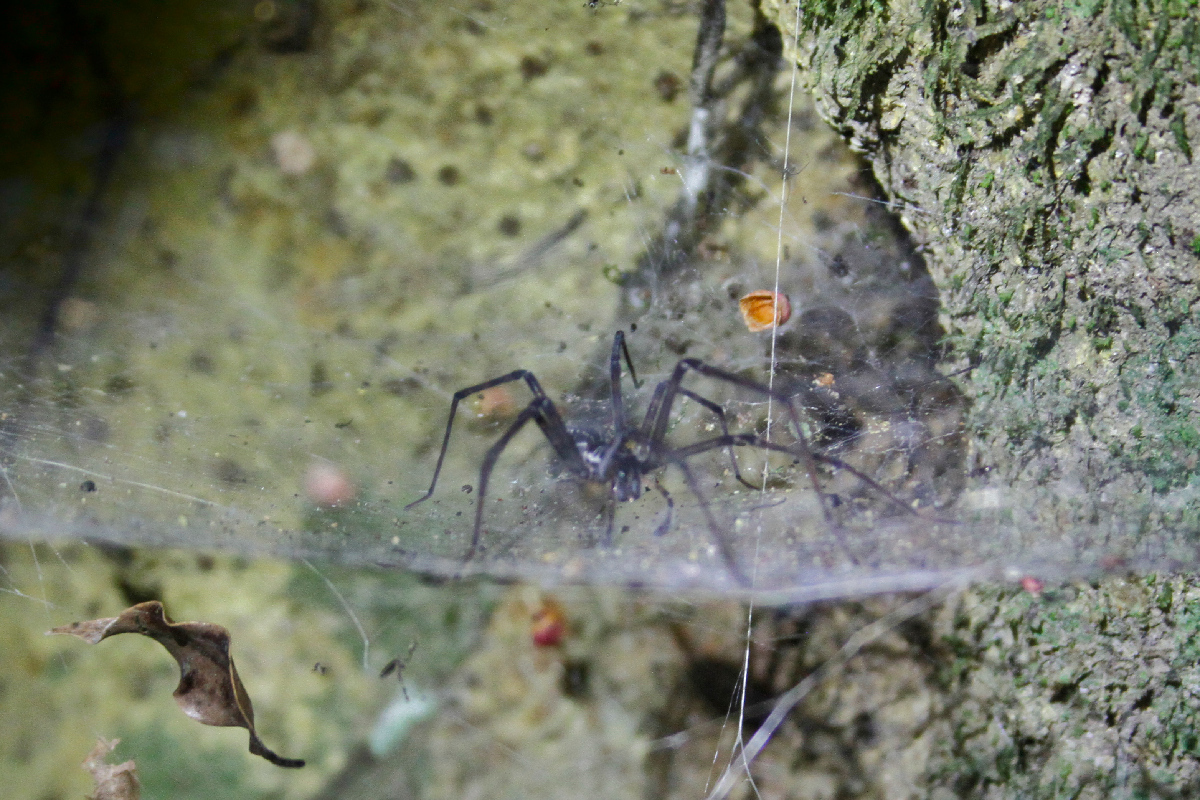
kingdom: Animalia
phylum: Arthropoda
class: Arachnida
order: Araneae
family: Zoropsidae
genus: Tengella
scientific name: Tengella radiata
